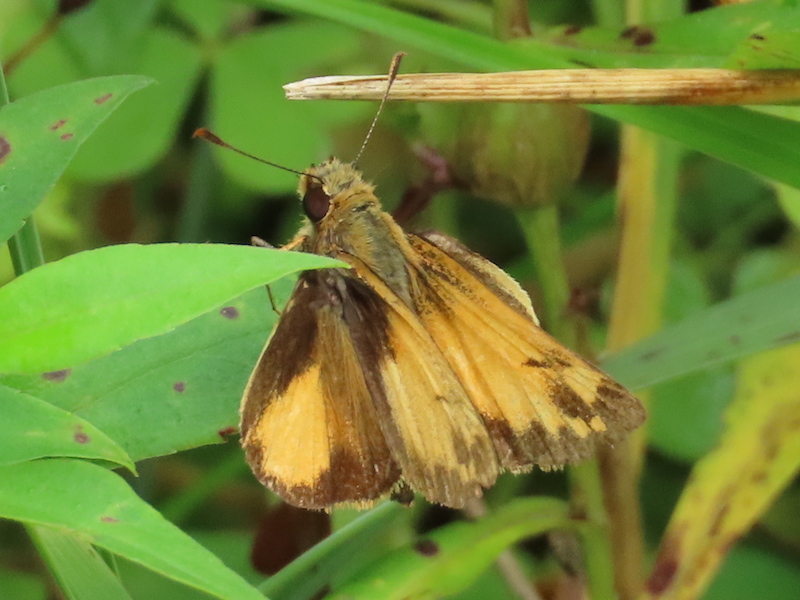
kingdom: Animalia
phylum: Arthropoda
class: Insecta
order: Lepidoptera
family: Hesperiidae
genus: Lon
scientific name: Lon zabulon
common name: Zabulon skipper
